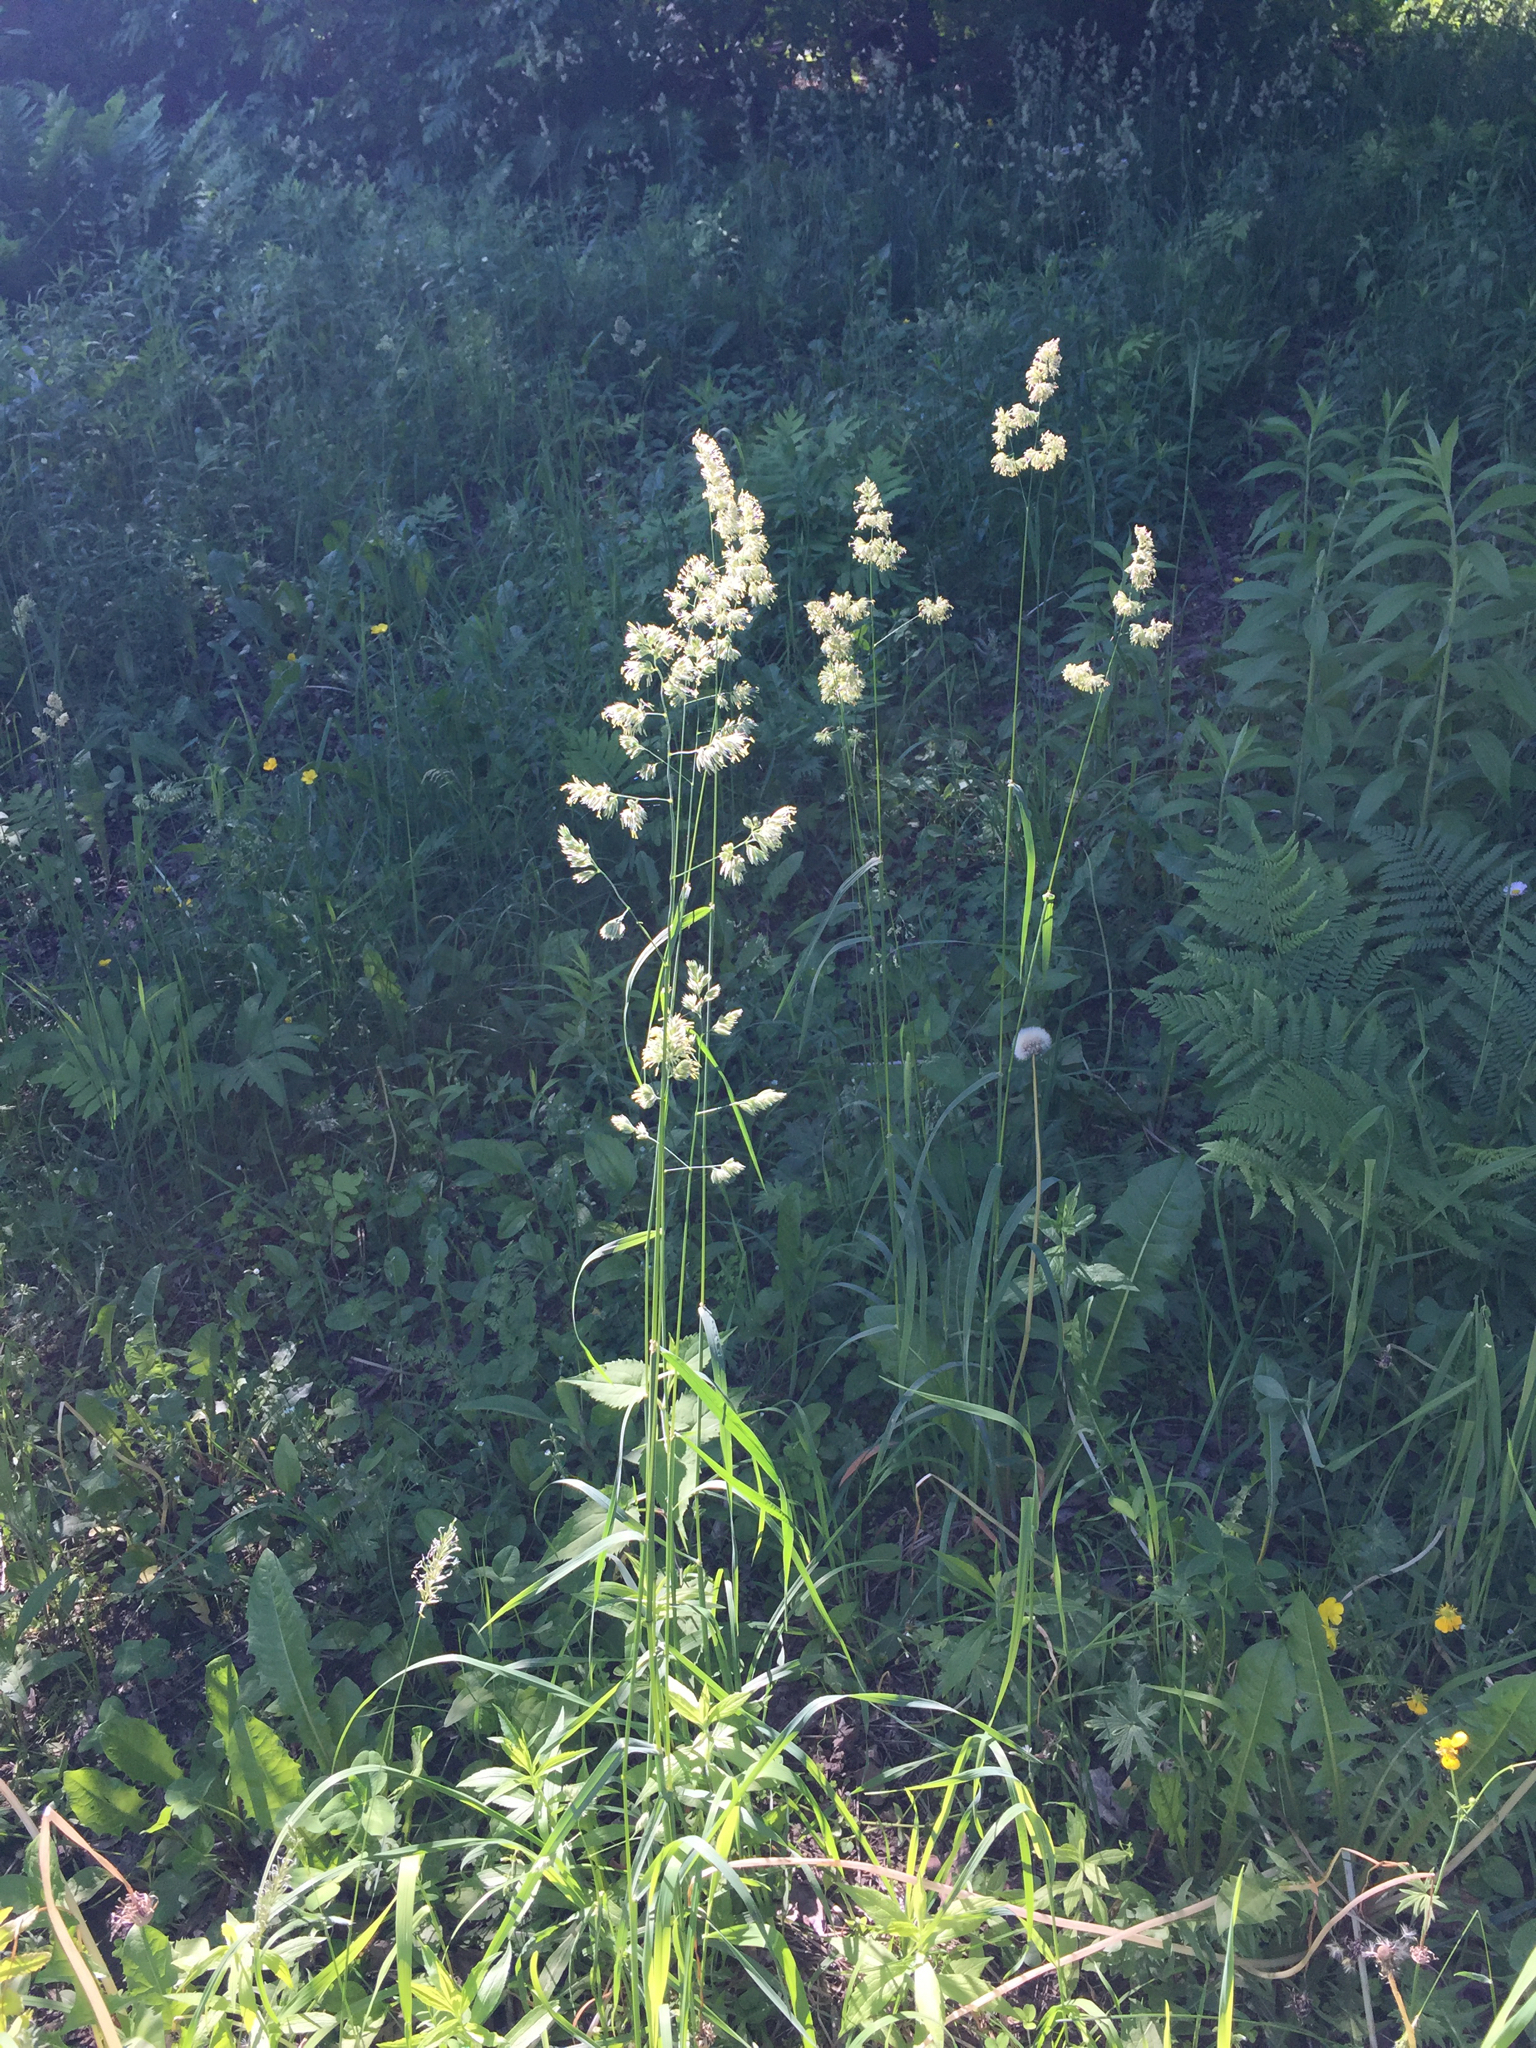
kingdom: Plantae
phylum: Tracheophyta
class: Liliopsida
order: Poales
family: Poaceae
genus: Dactylis
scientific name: Dactylis glomerata
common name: Orchardgrass
